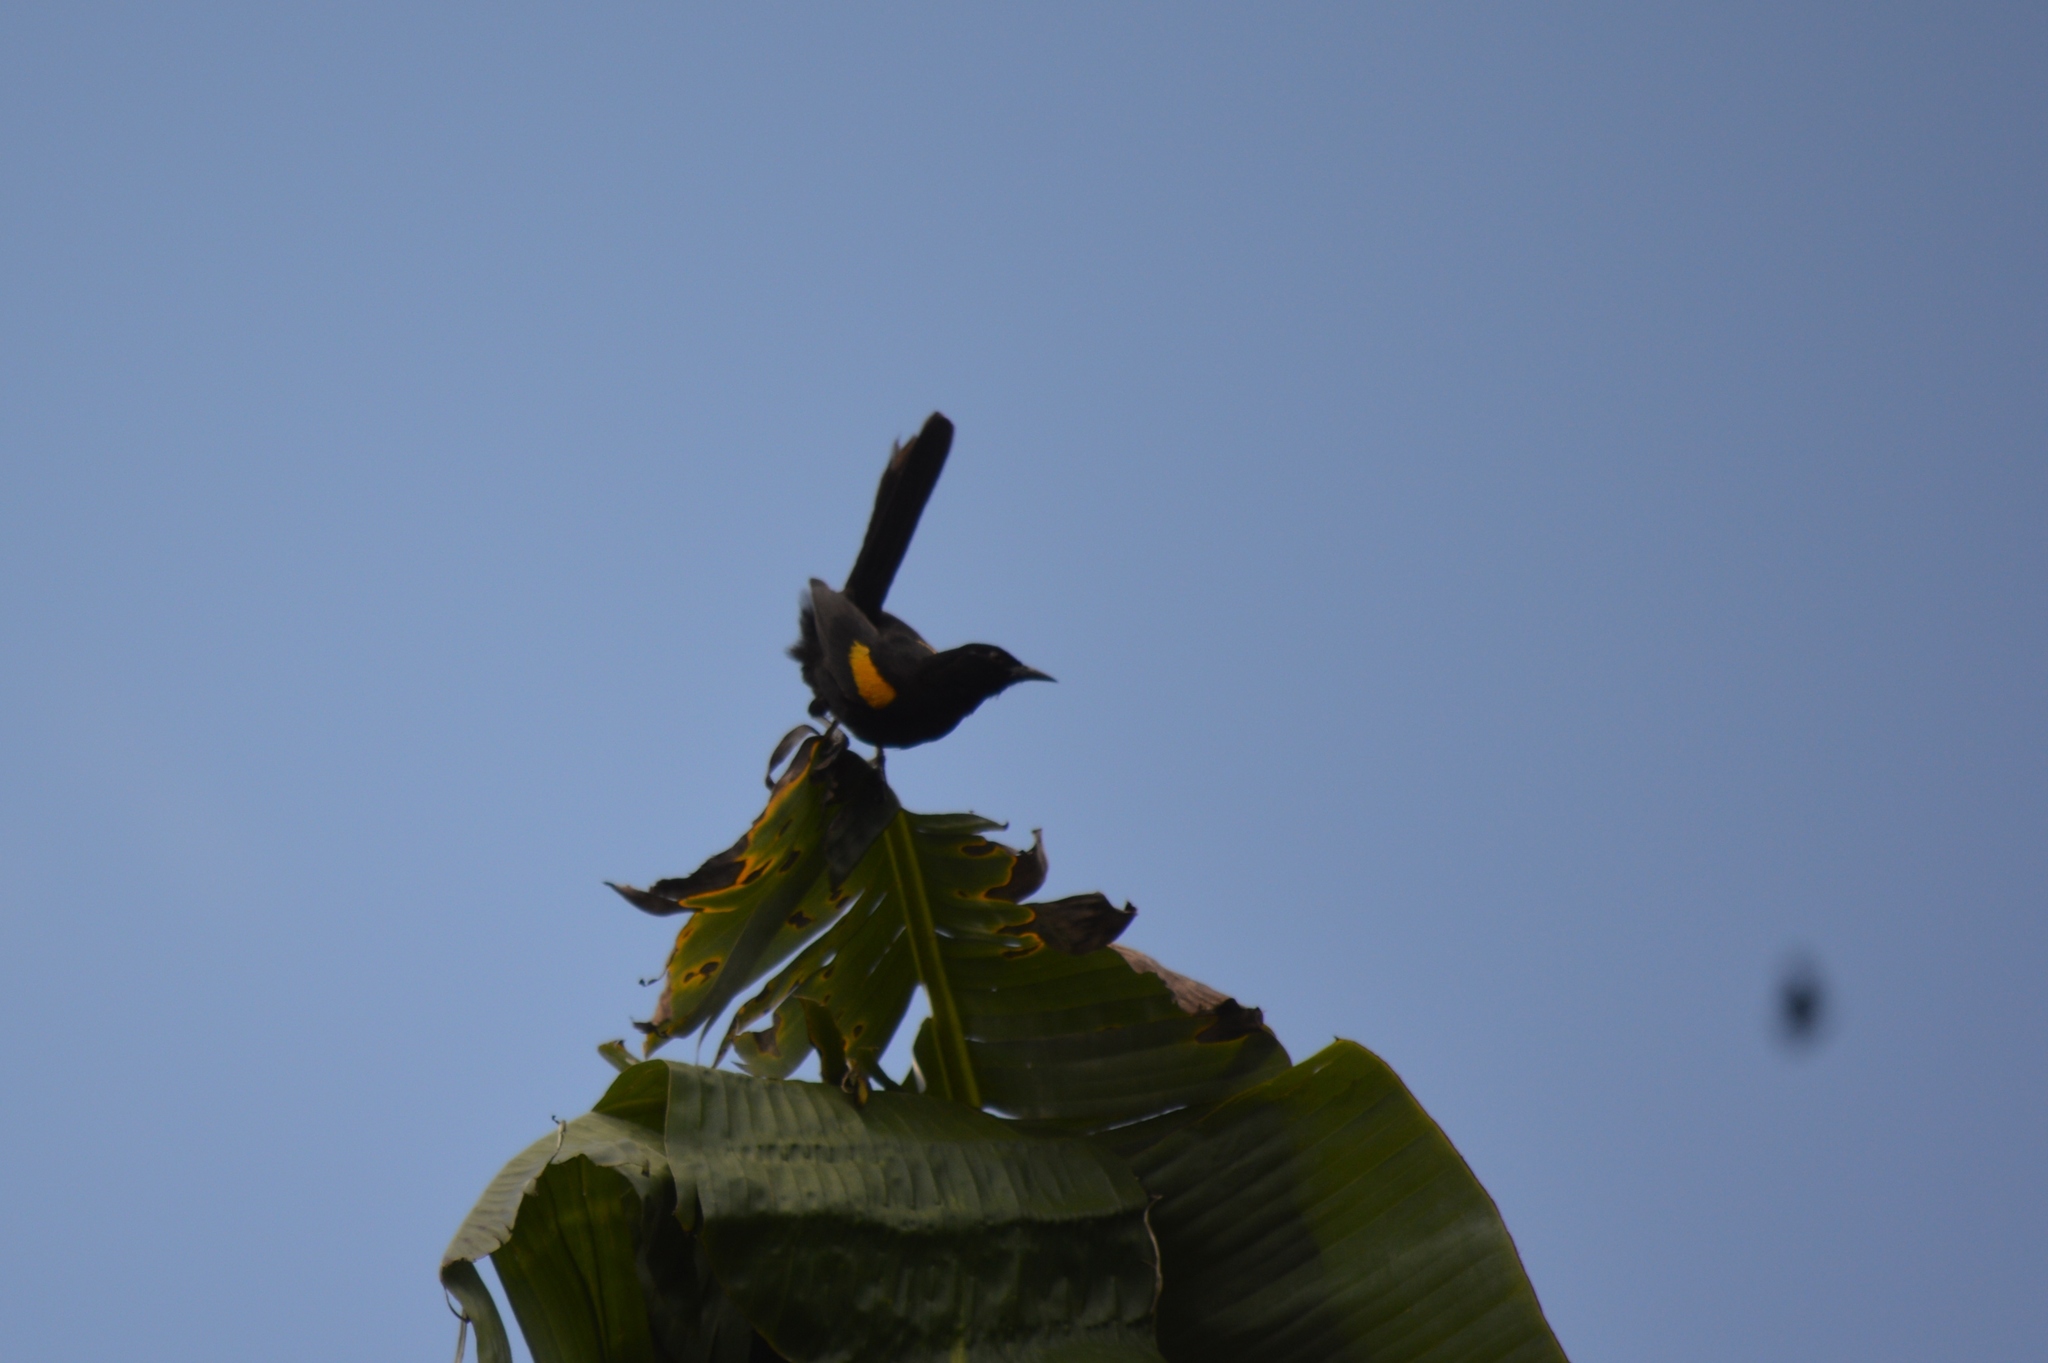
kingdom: Animalia
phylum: Chordata
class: Aves
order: Passeriformes
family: Icteridae
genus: Icterus
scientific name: Icterus cayanensis
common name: Epaulet oriole
